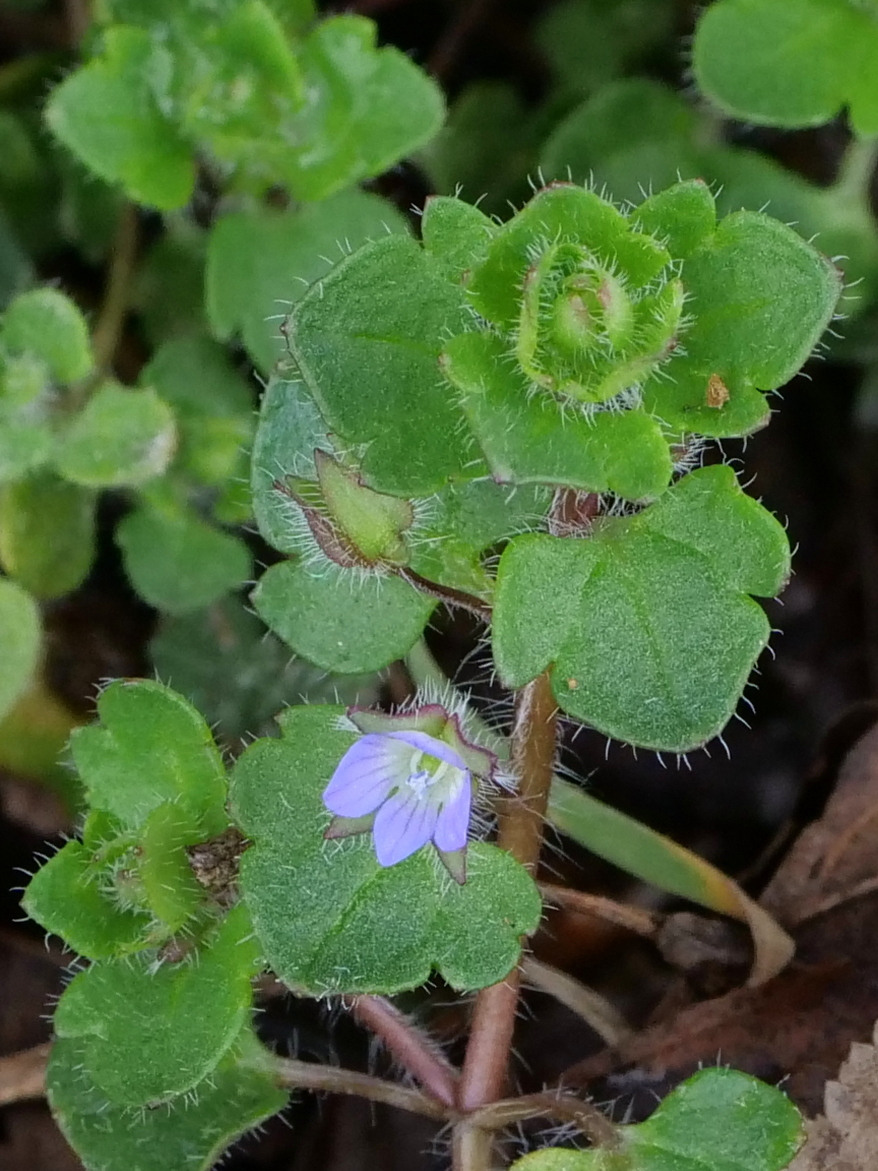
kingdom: Plantae
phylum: Tracheophyta
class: Magnoliopsida
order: Lamiales
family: Plantaginaceae
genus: Veronica
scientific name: Veronica hederifolia
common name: Ivy-leaved speedwell
